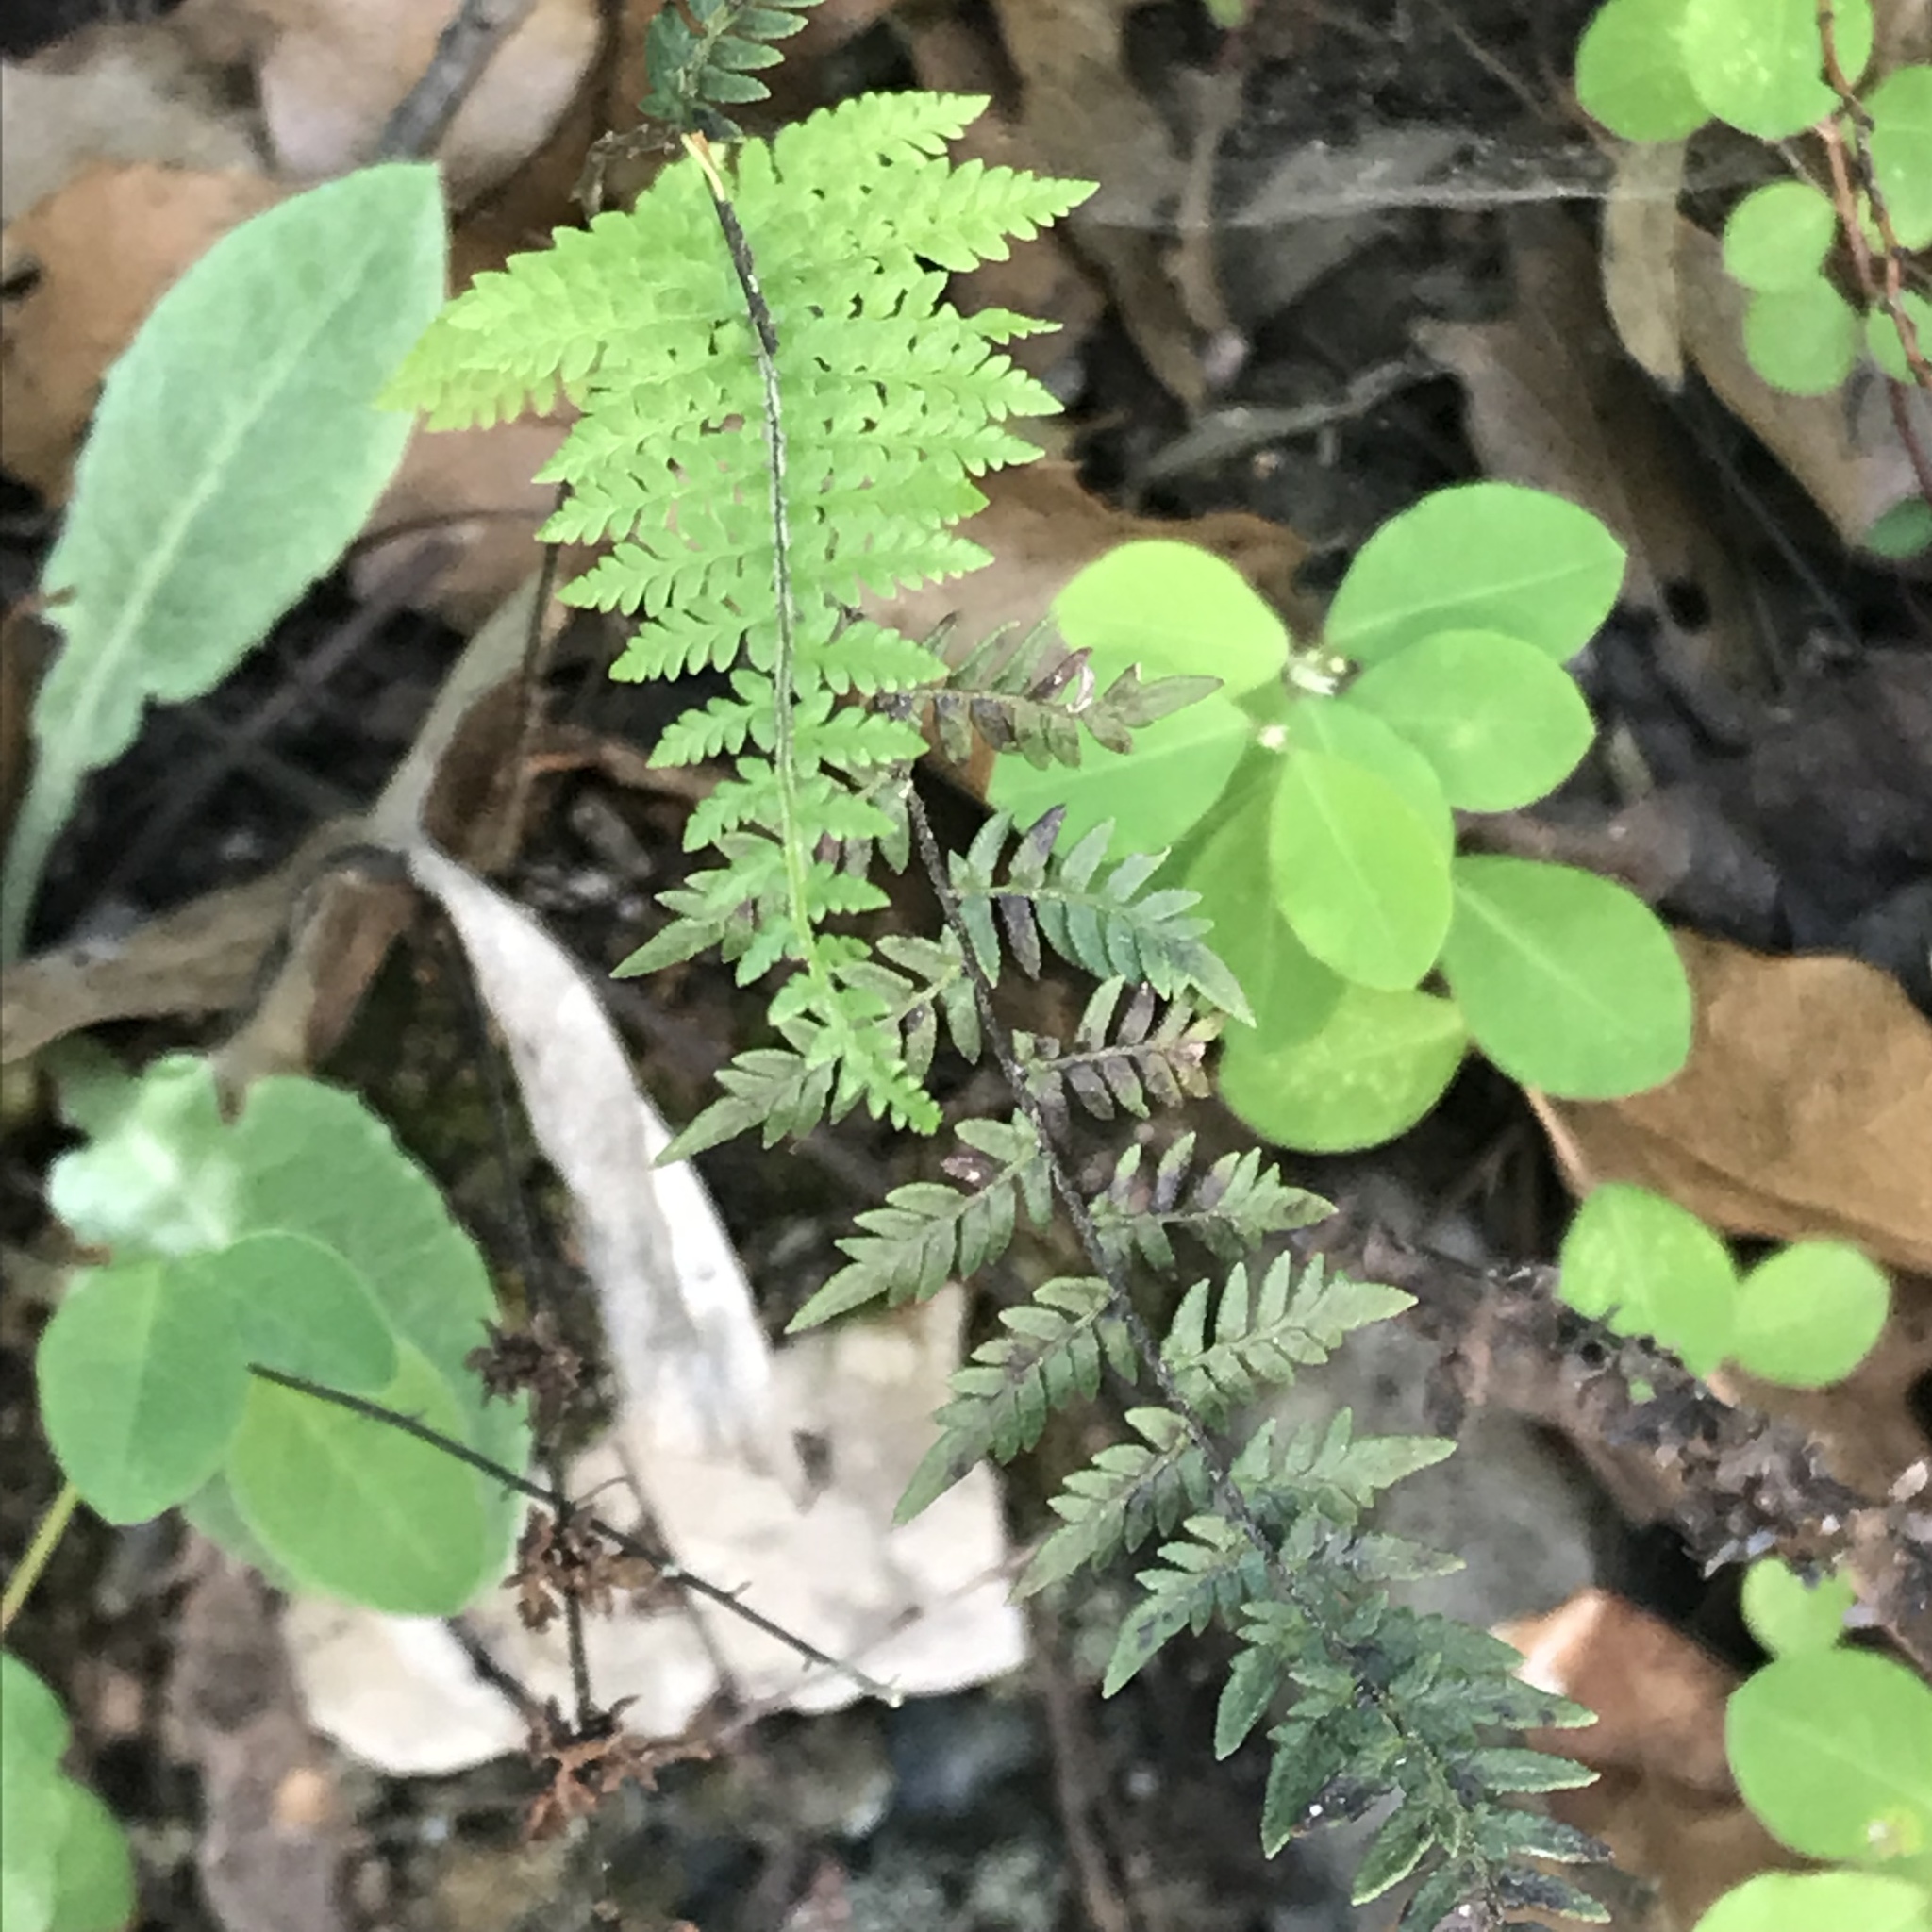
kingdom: Plantae
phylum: Tracheophyta
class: Polypodiopsida
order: Polypodiales
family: Pteridaceae
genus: Myriopteris
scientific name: Myriopteris microphylla
